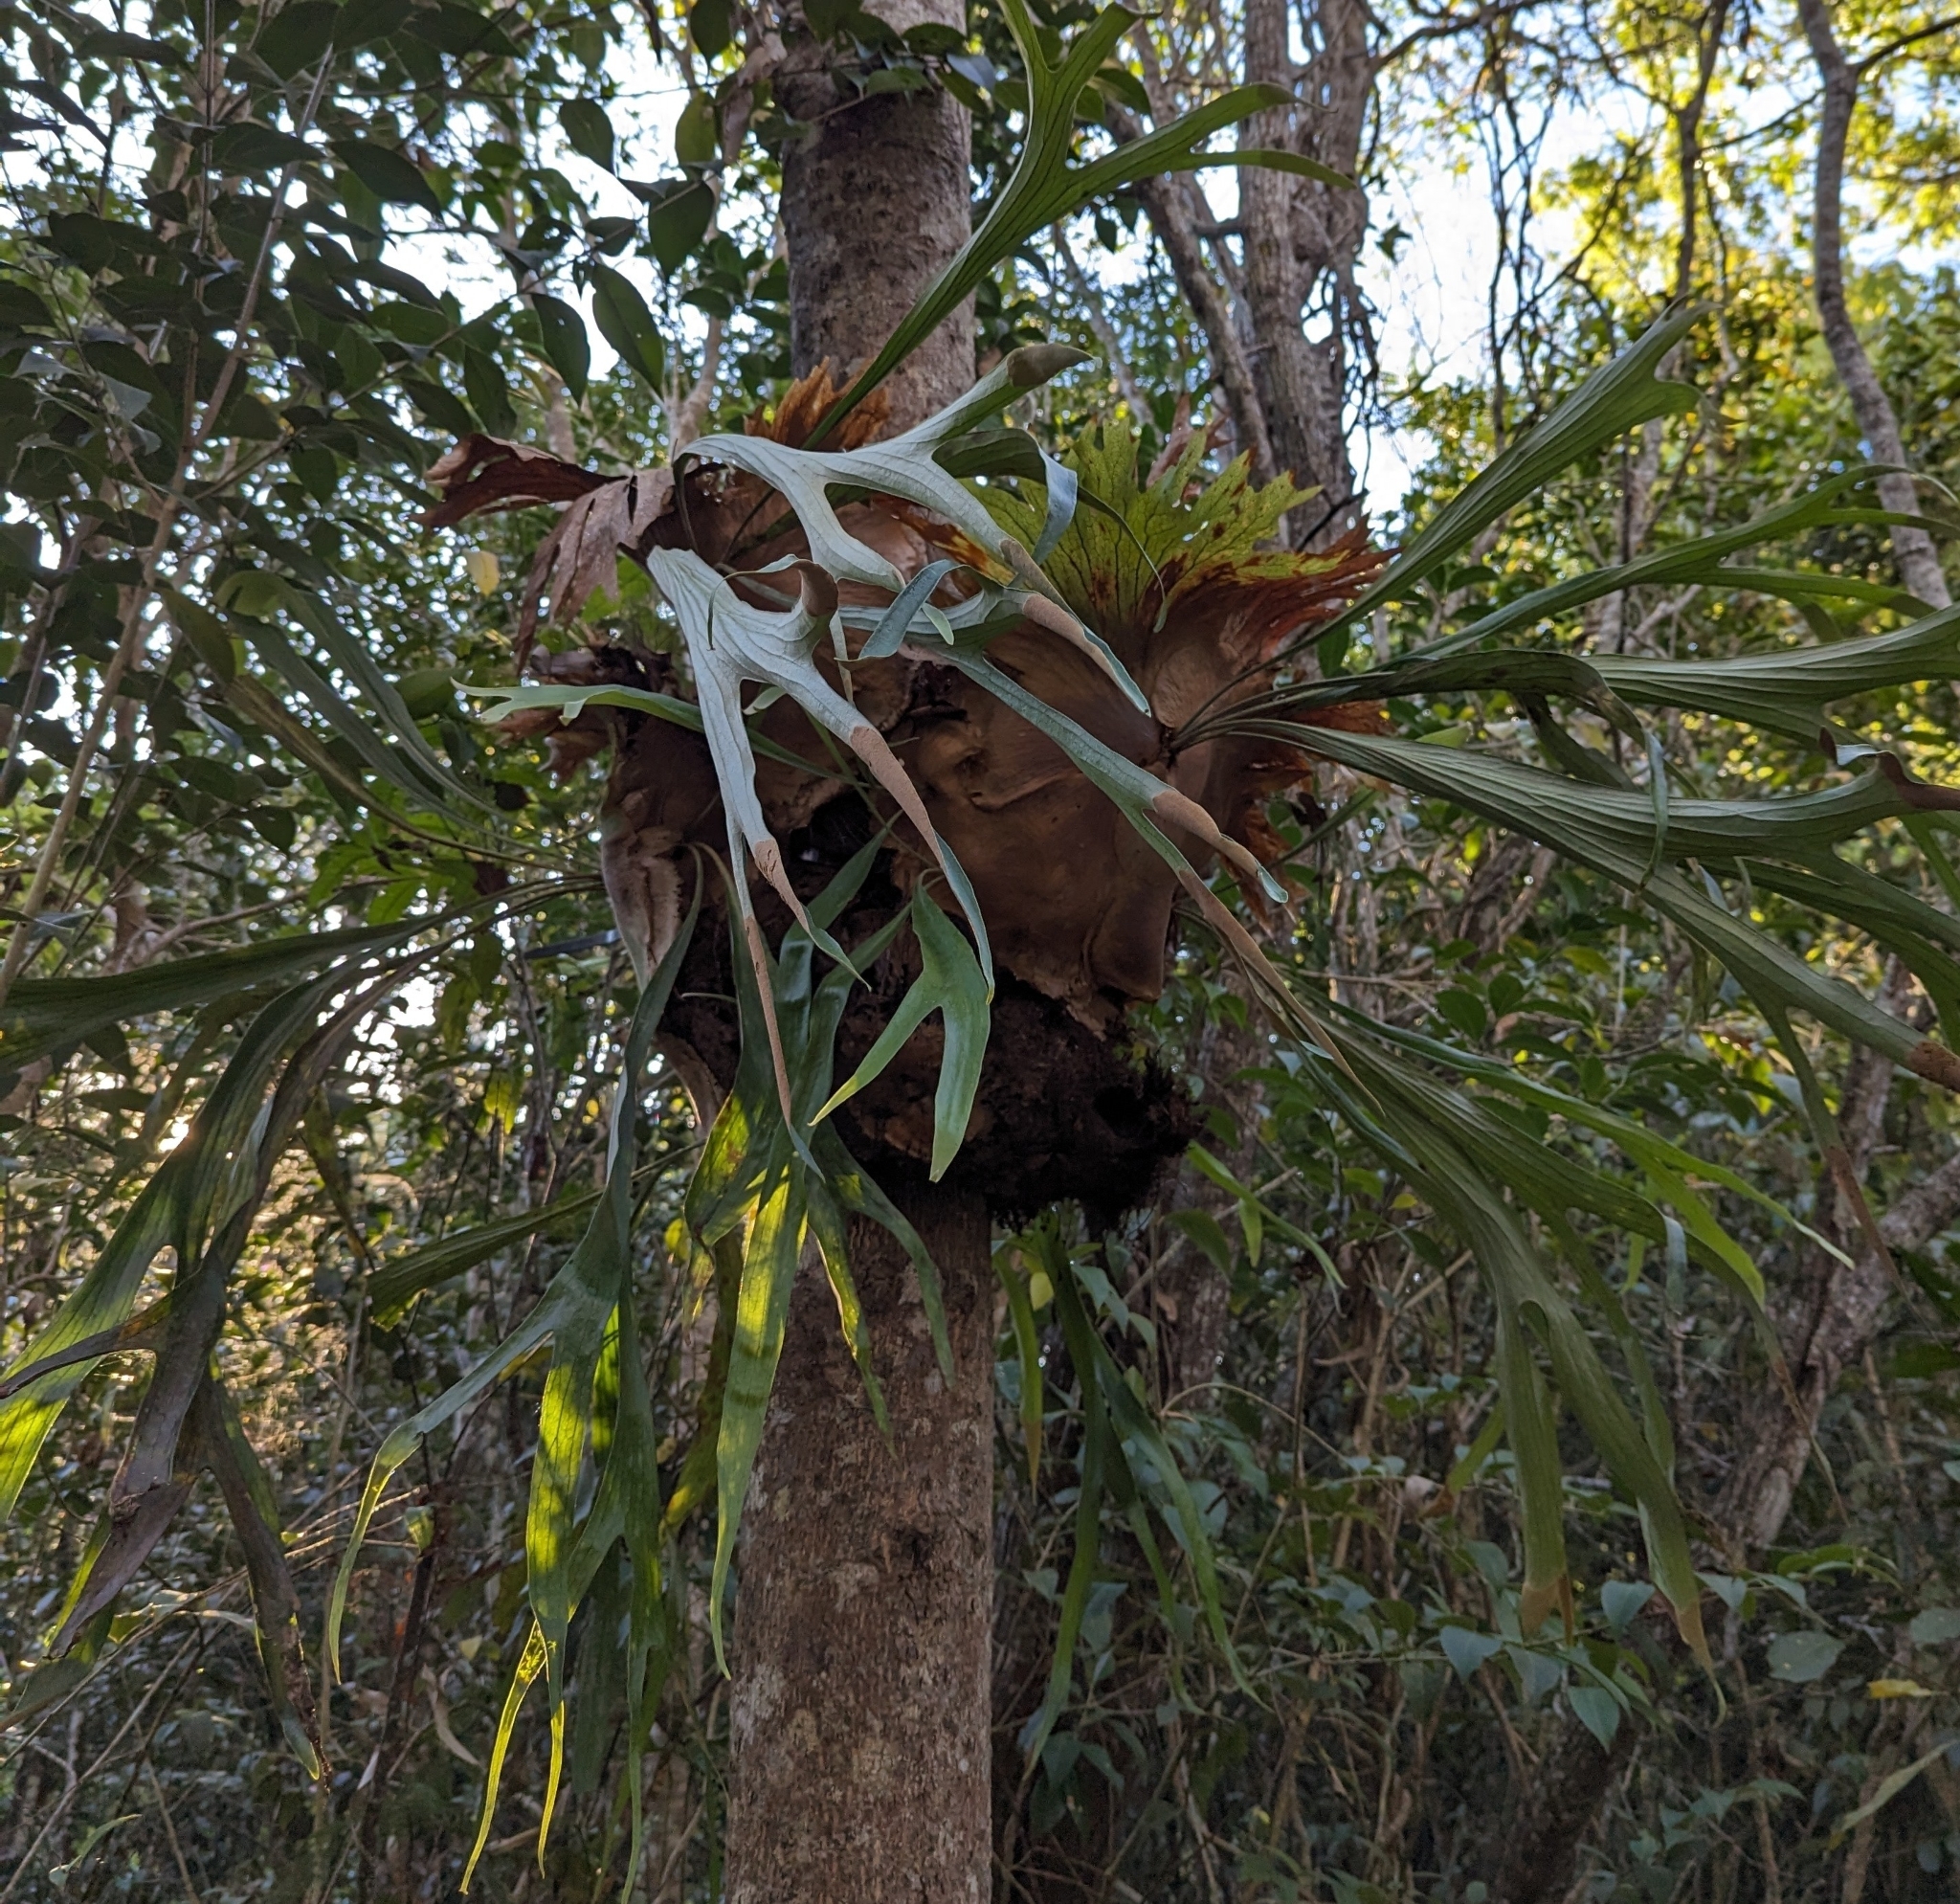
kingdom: Plantae
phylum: Tracheophyta
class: Polypodiopsida
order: Polypodiales
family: Polypodiaceae
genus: Platycerium
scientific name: Platycerium bifurcatum
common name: Elkhorn fern
